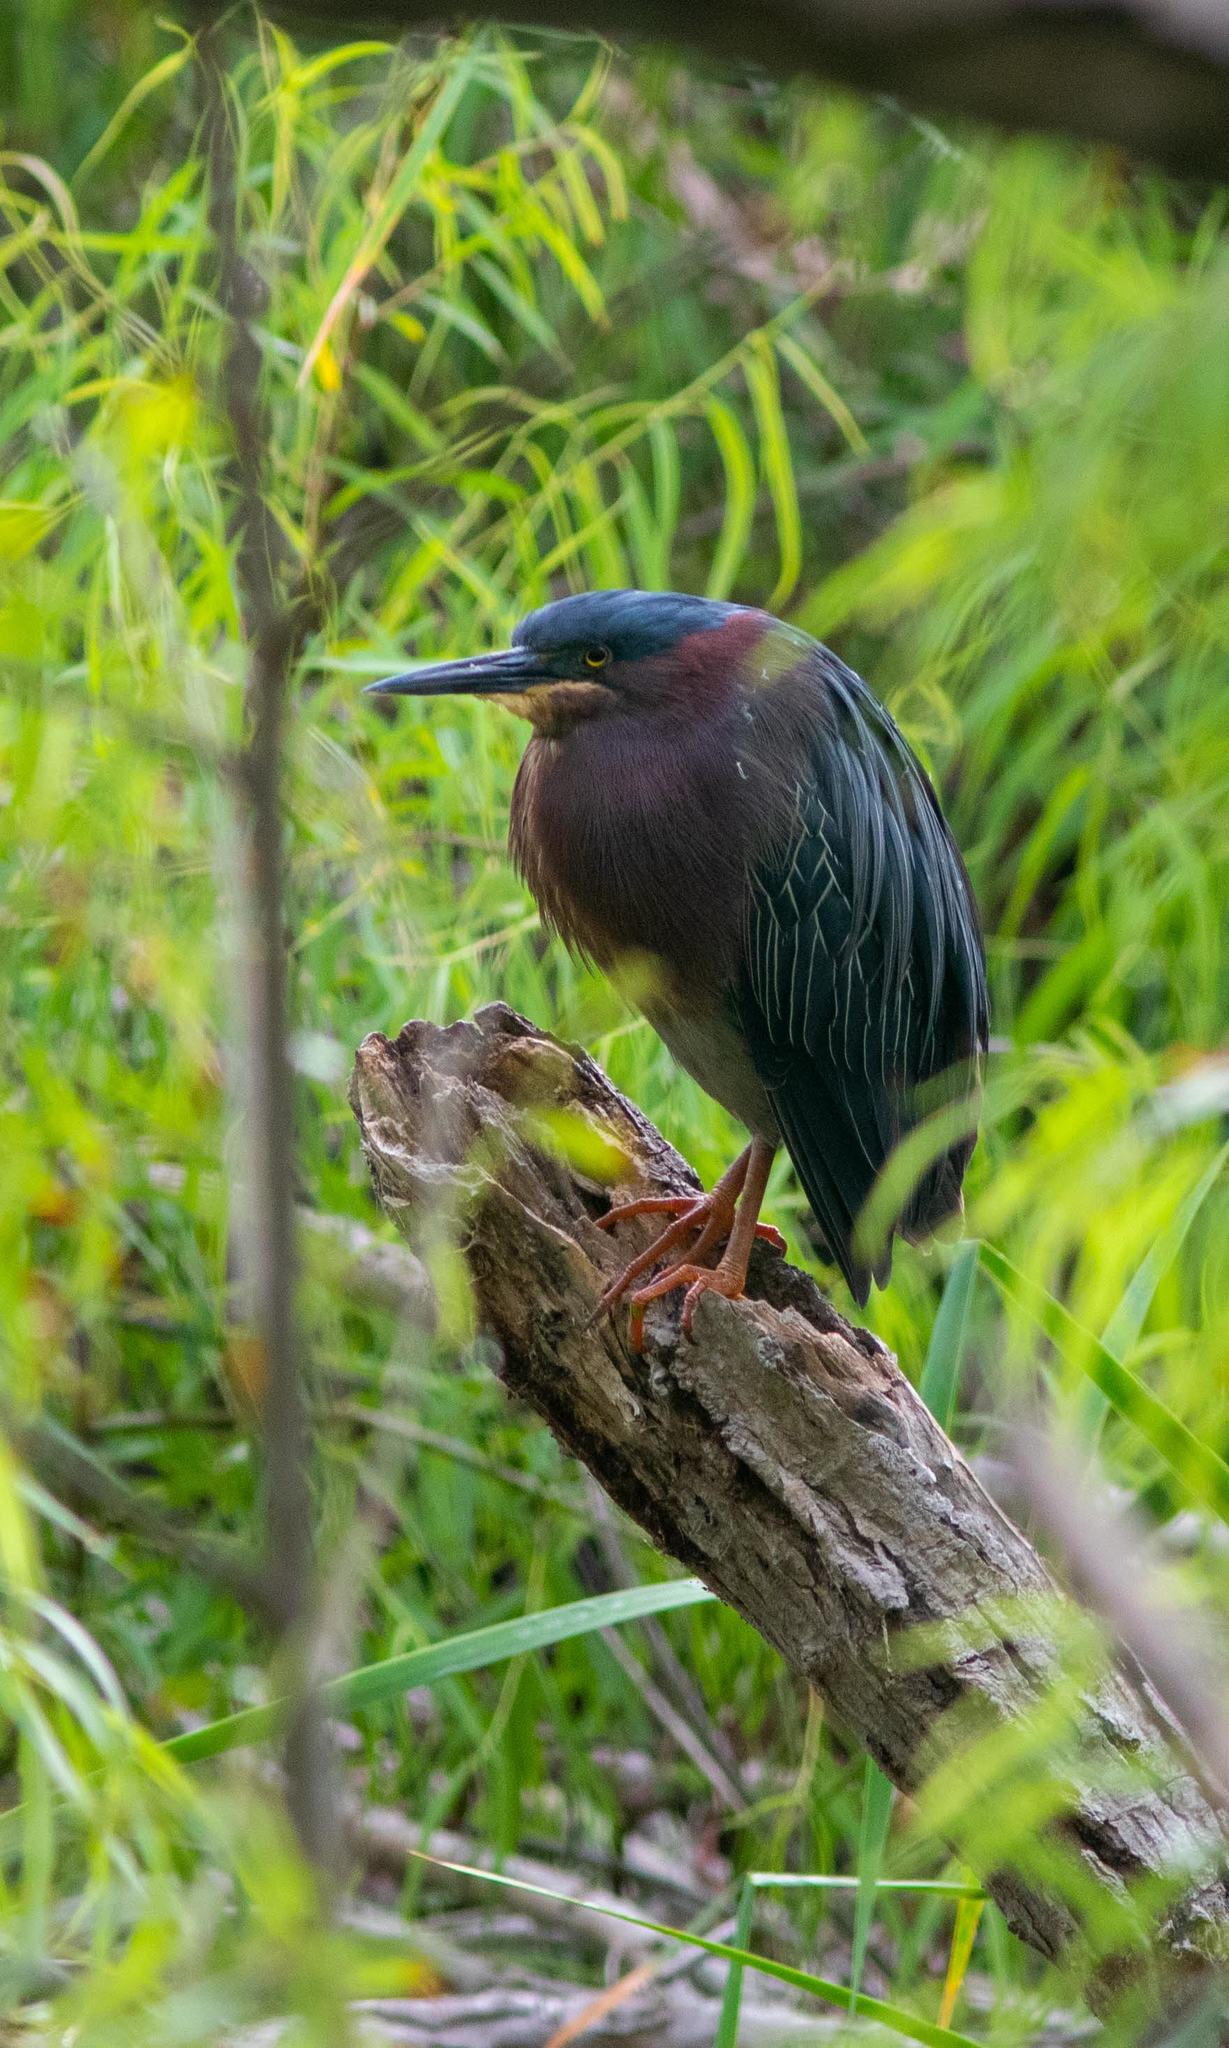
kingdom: Animalia
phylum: Chordata
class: Aves
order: Pelecaniformes
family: Ardeidae
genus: Butorides
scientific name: Butorides virescens
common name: Green heron
